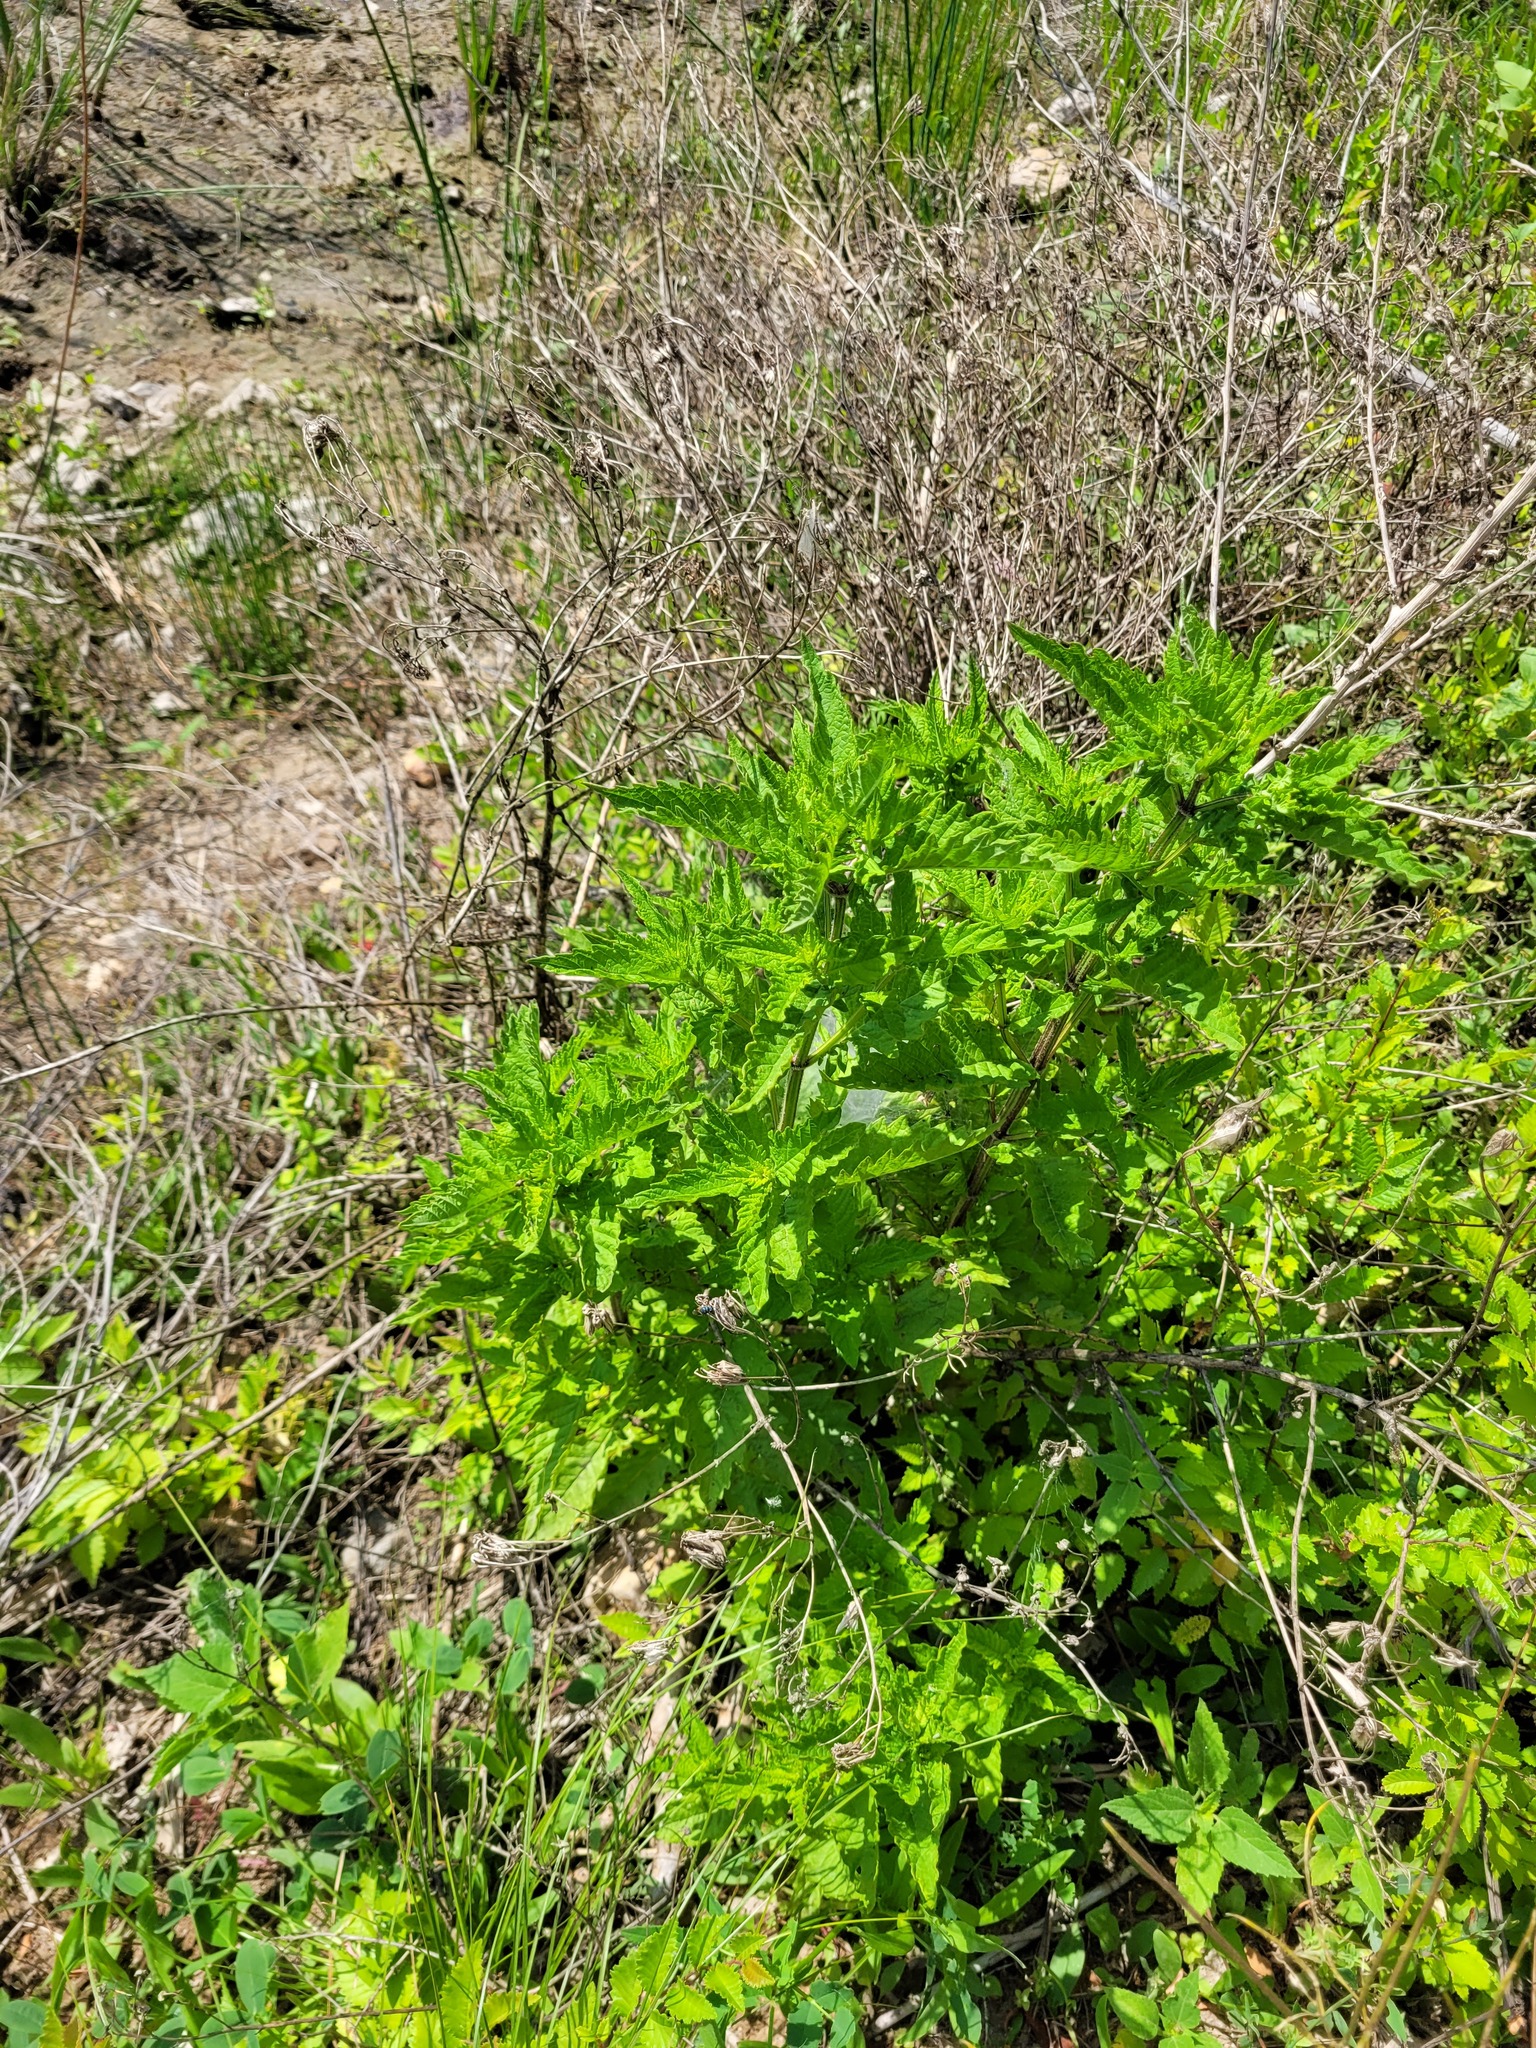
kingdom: Plantae
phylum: Tracheophyta
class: Magnoliopsida
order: Lamiales
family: Lamiaceae
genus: Lycopus
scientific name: Lycopus europaeus
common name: European bugleweed
